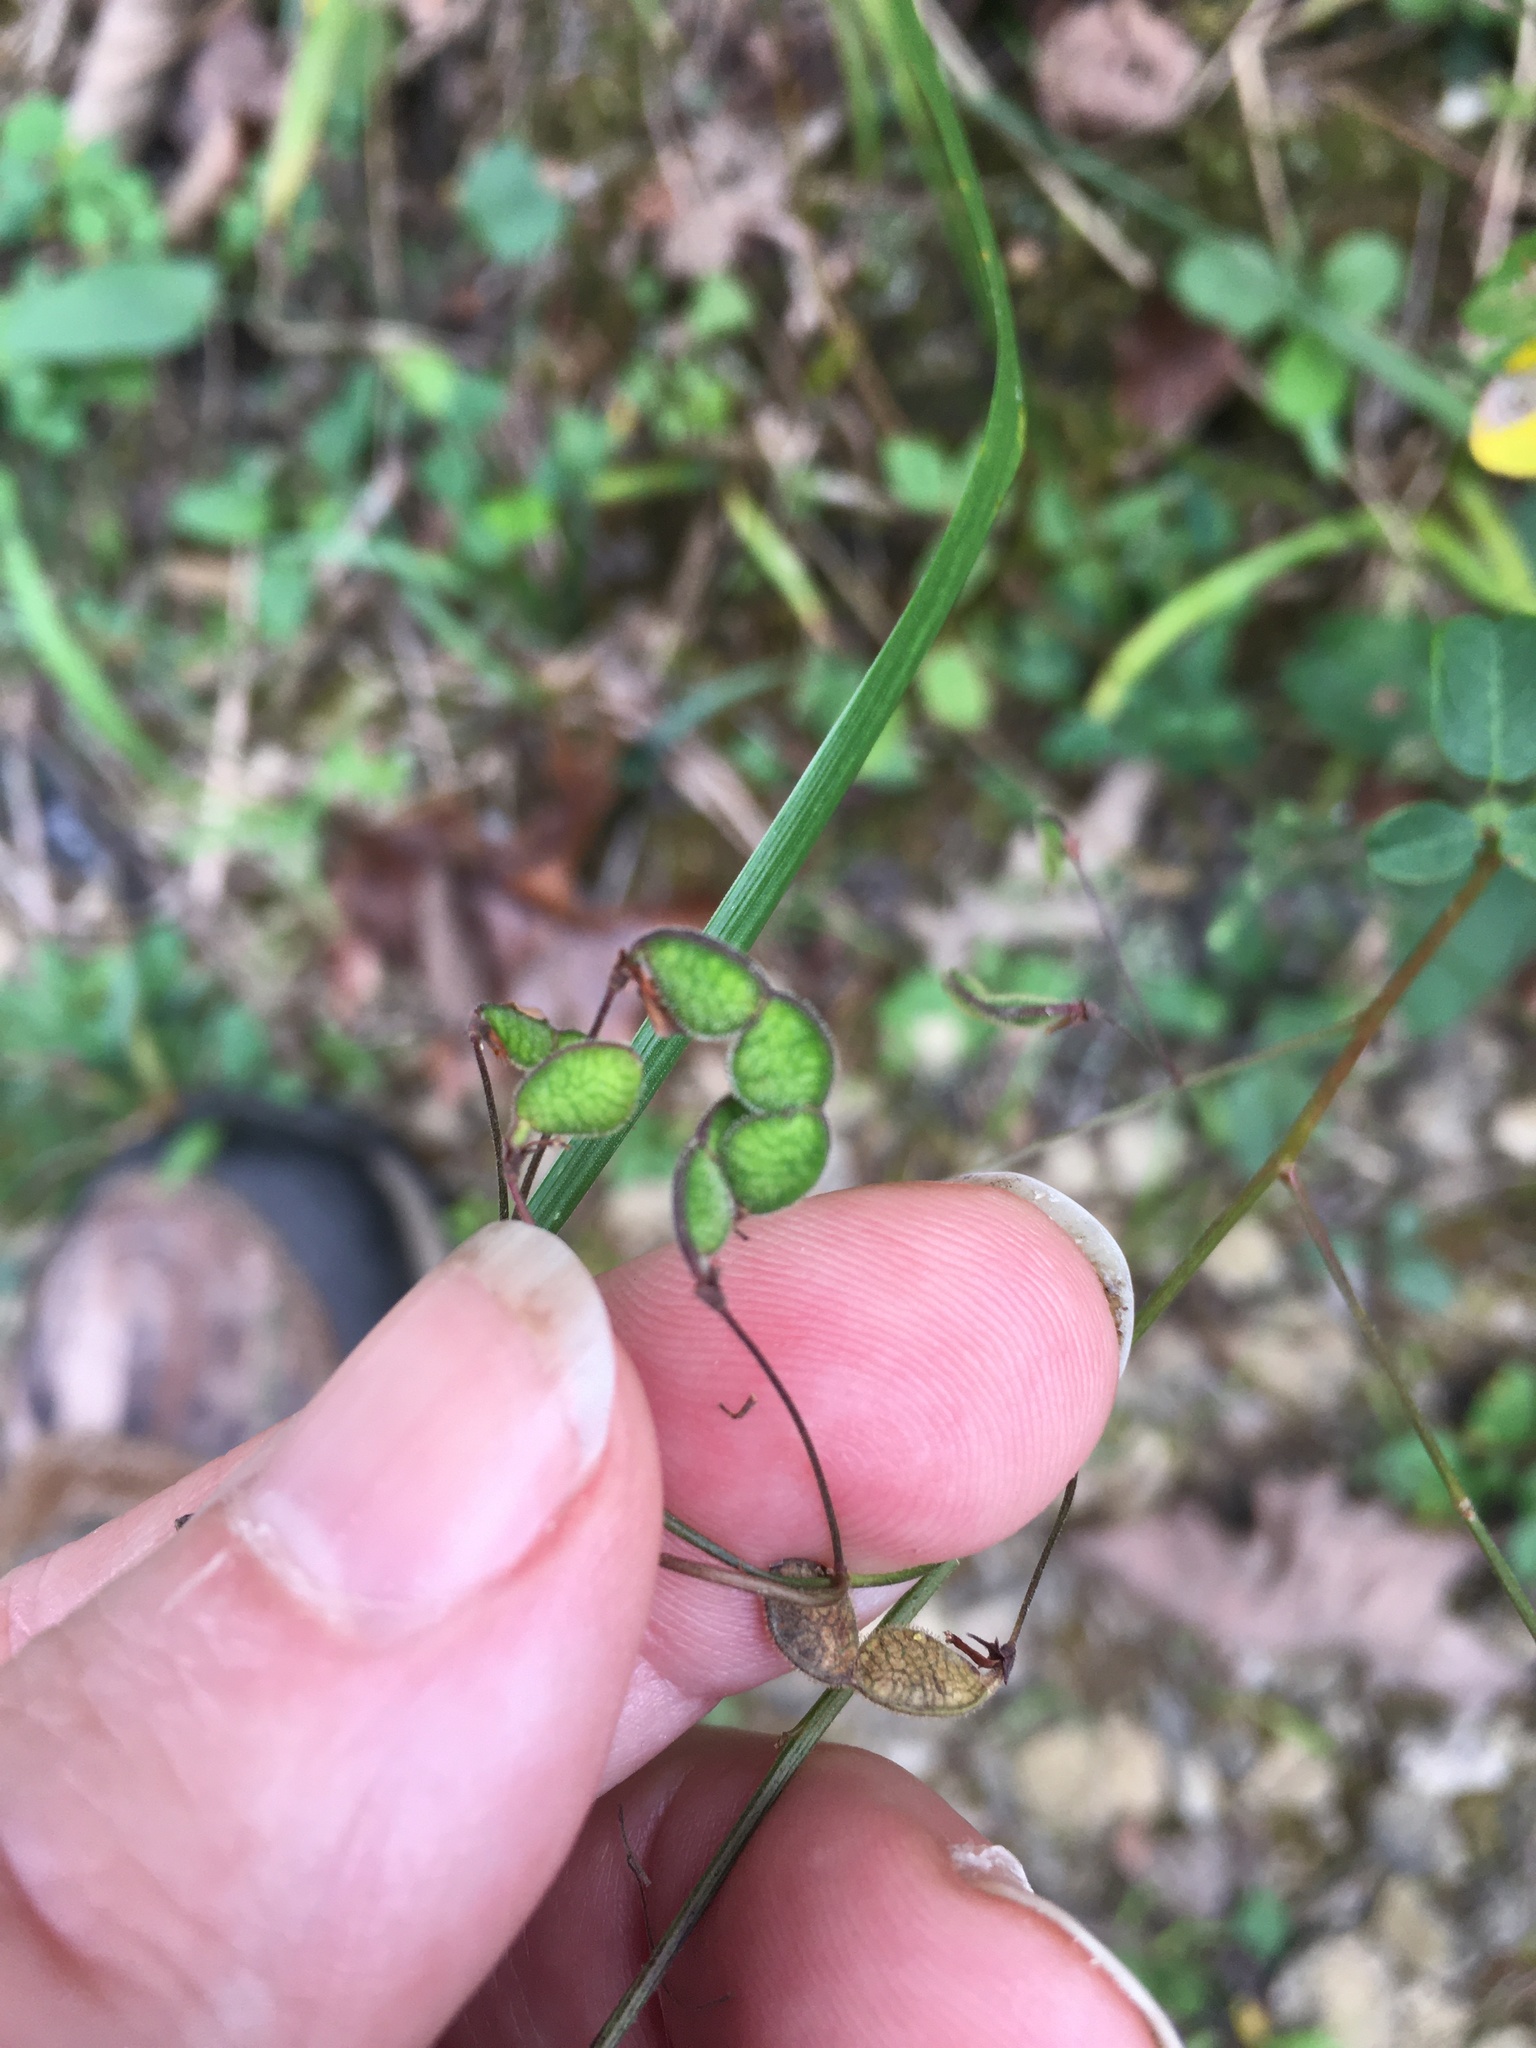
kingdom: Plantae
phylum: Tracheophyta
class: Magnoliopsida
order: Fabales
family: Fabaceae
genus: Desmodium
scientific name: Desmodium marilandicum
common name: Maryland tick-trefoil
